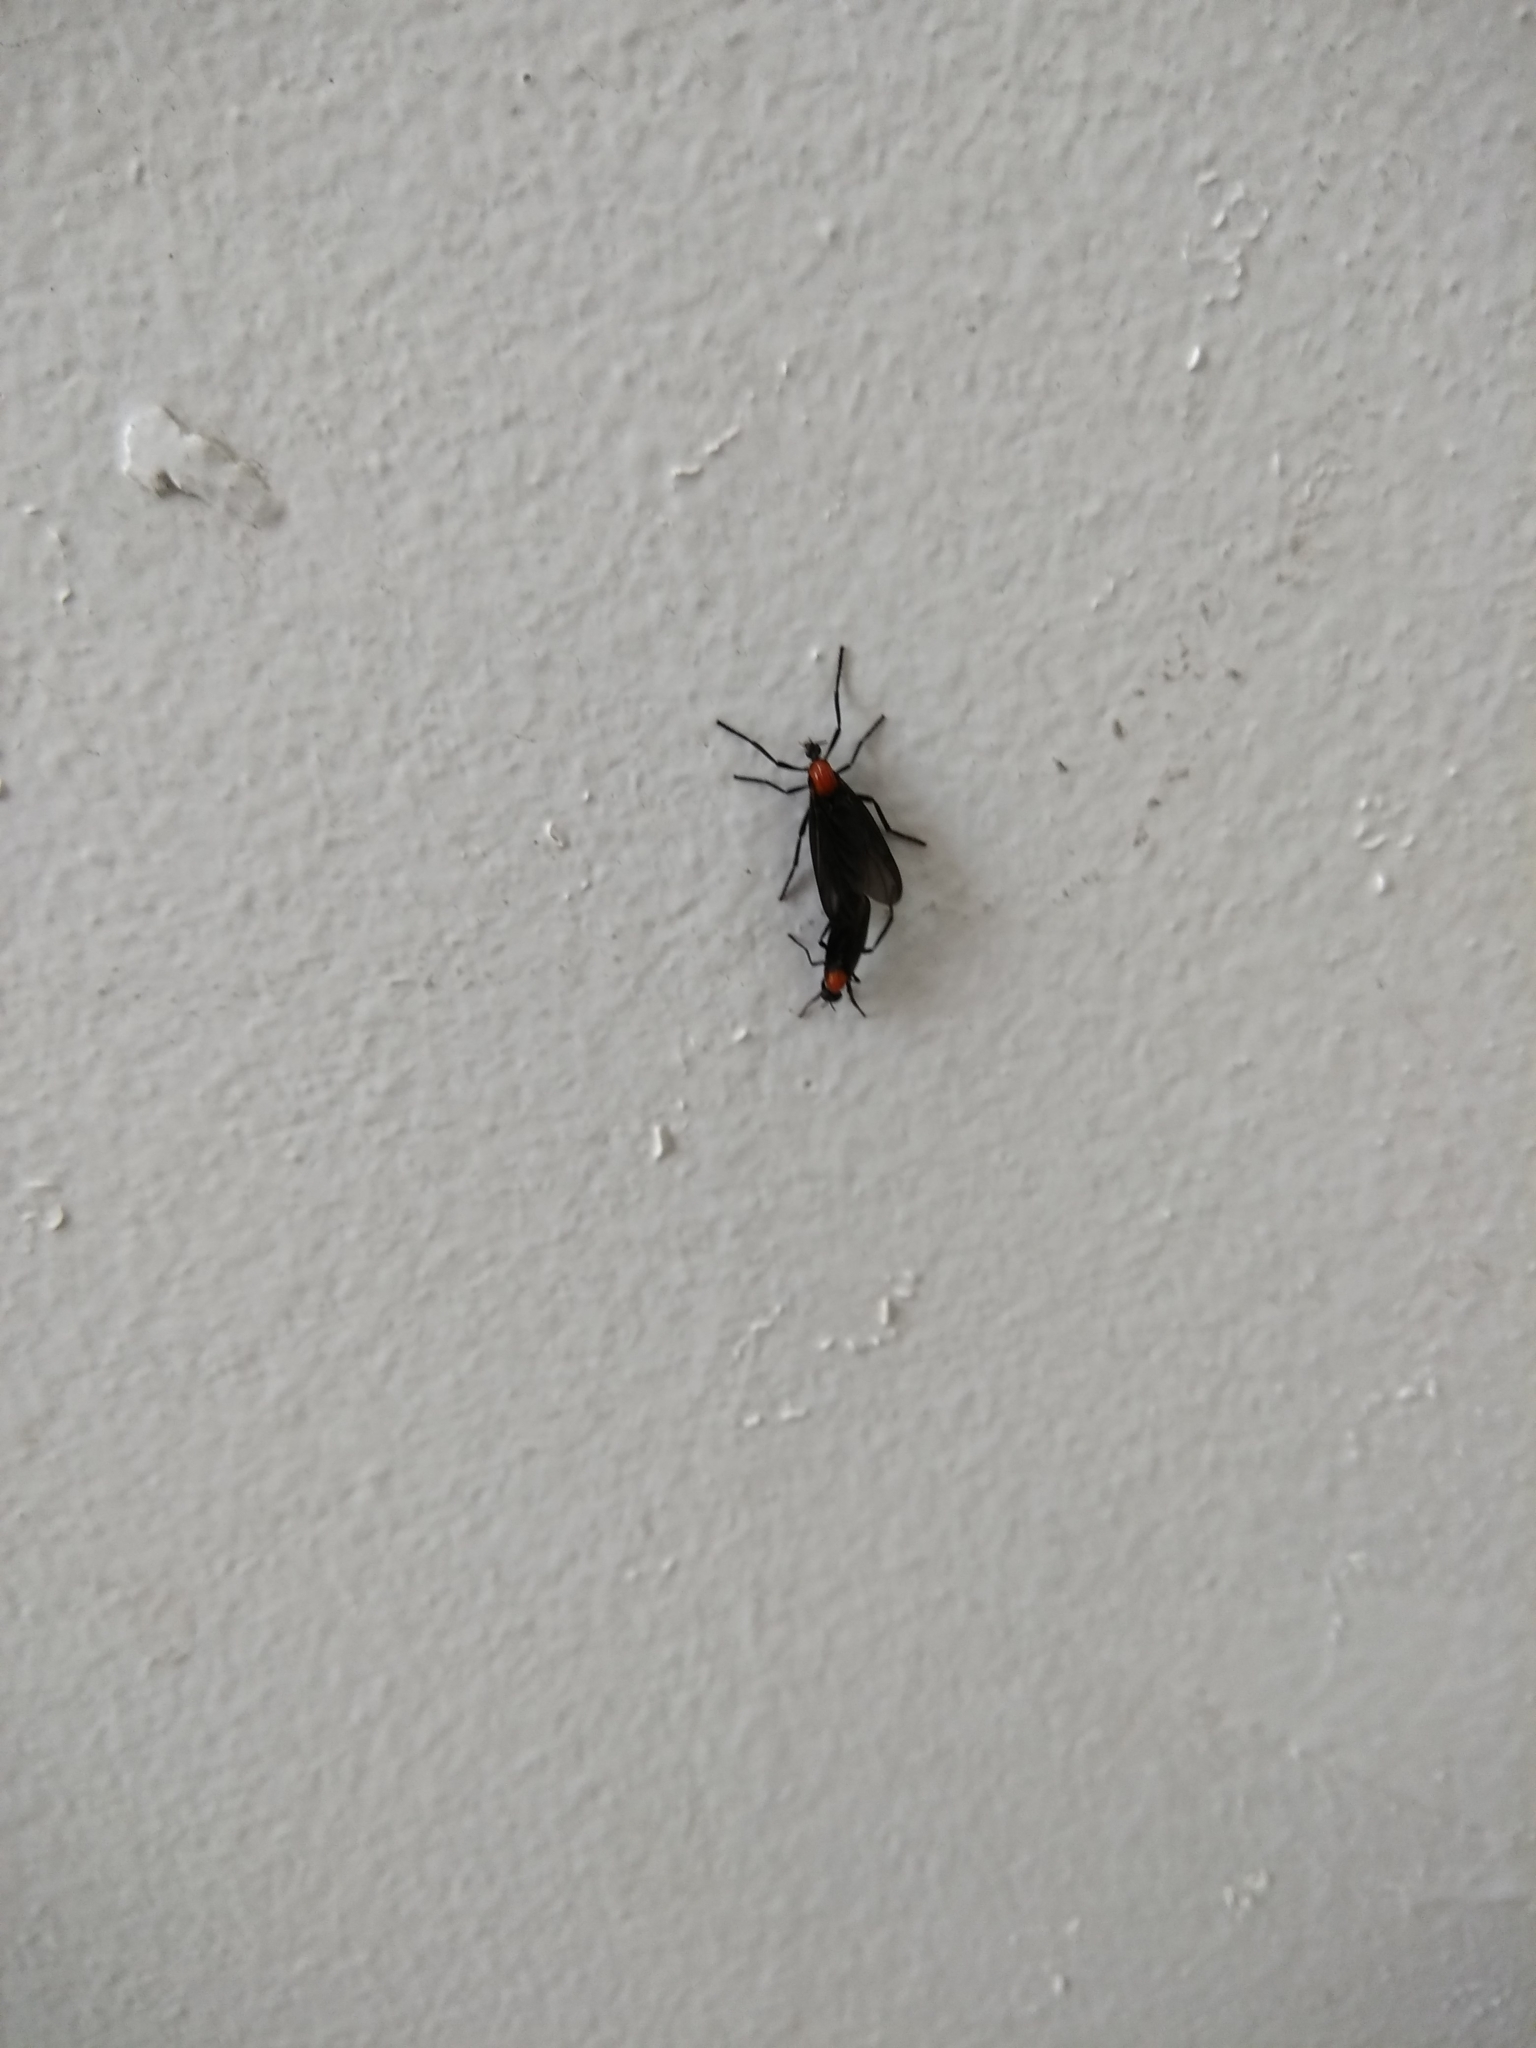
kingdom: Animalia
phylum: Arthropoda
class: Insecta
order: Diptera
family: Bibionidae
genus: Plecia
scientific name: Plecia nearctica
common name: March fly
